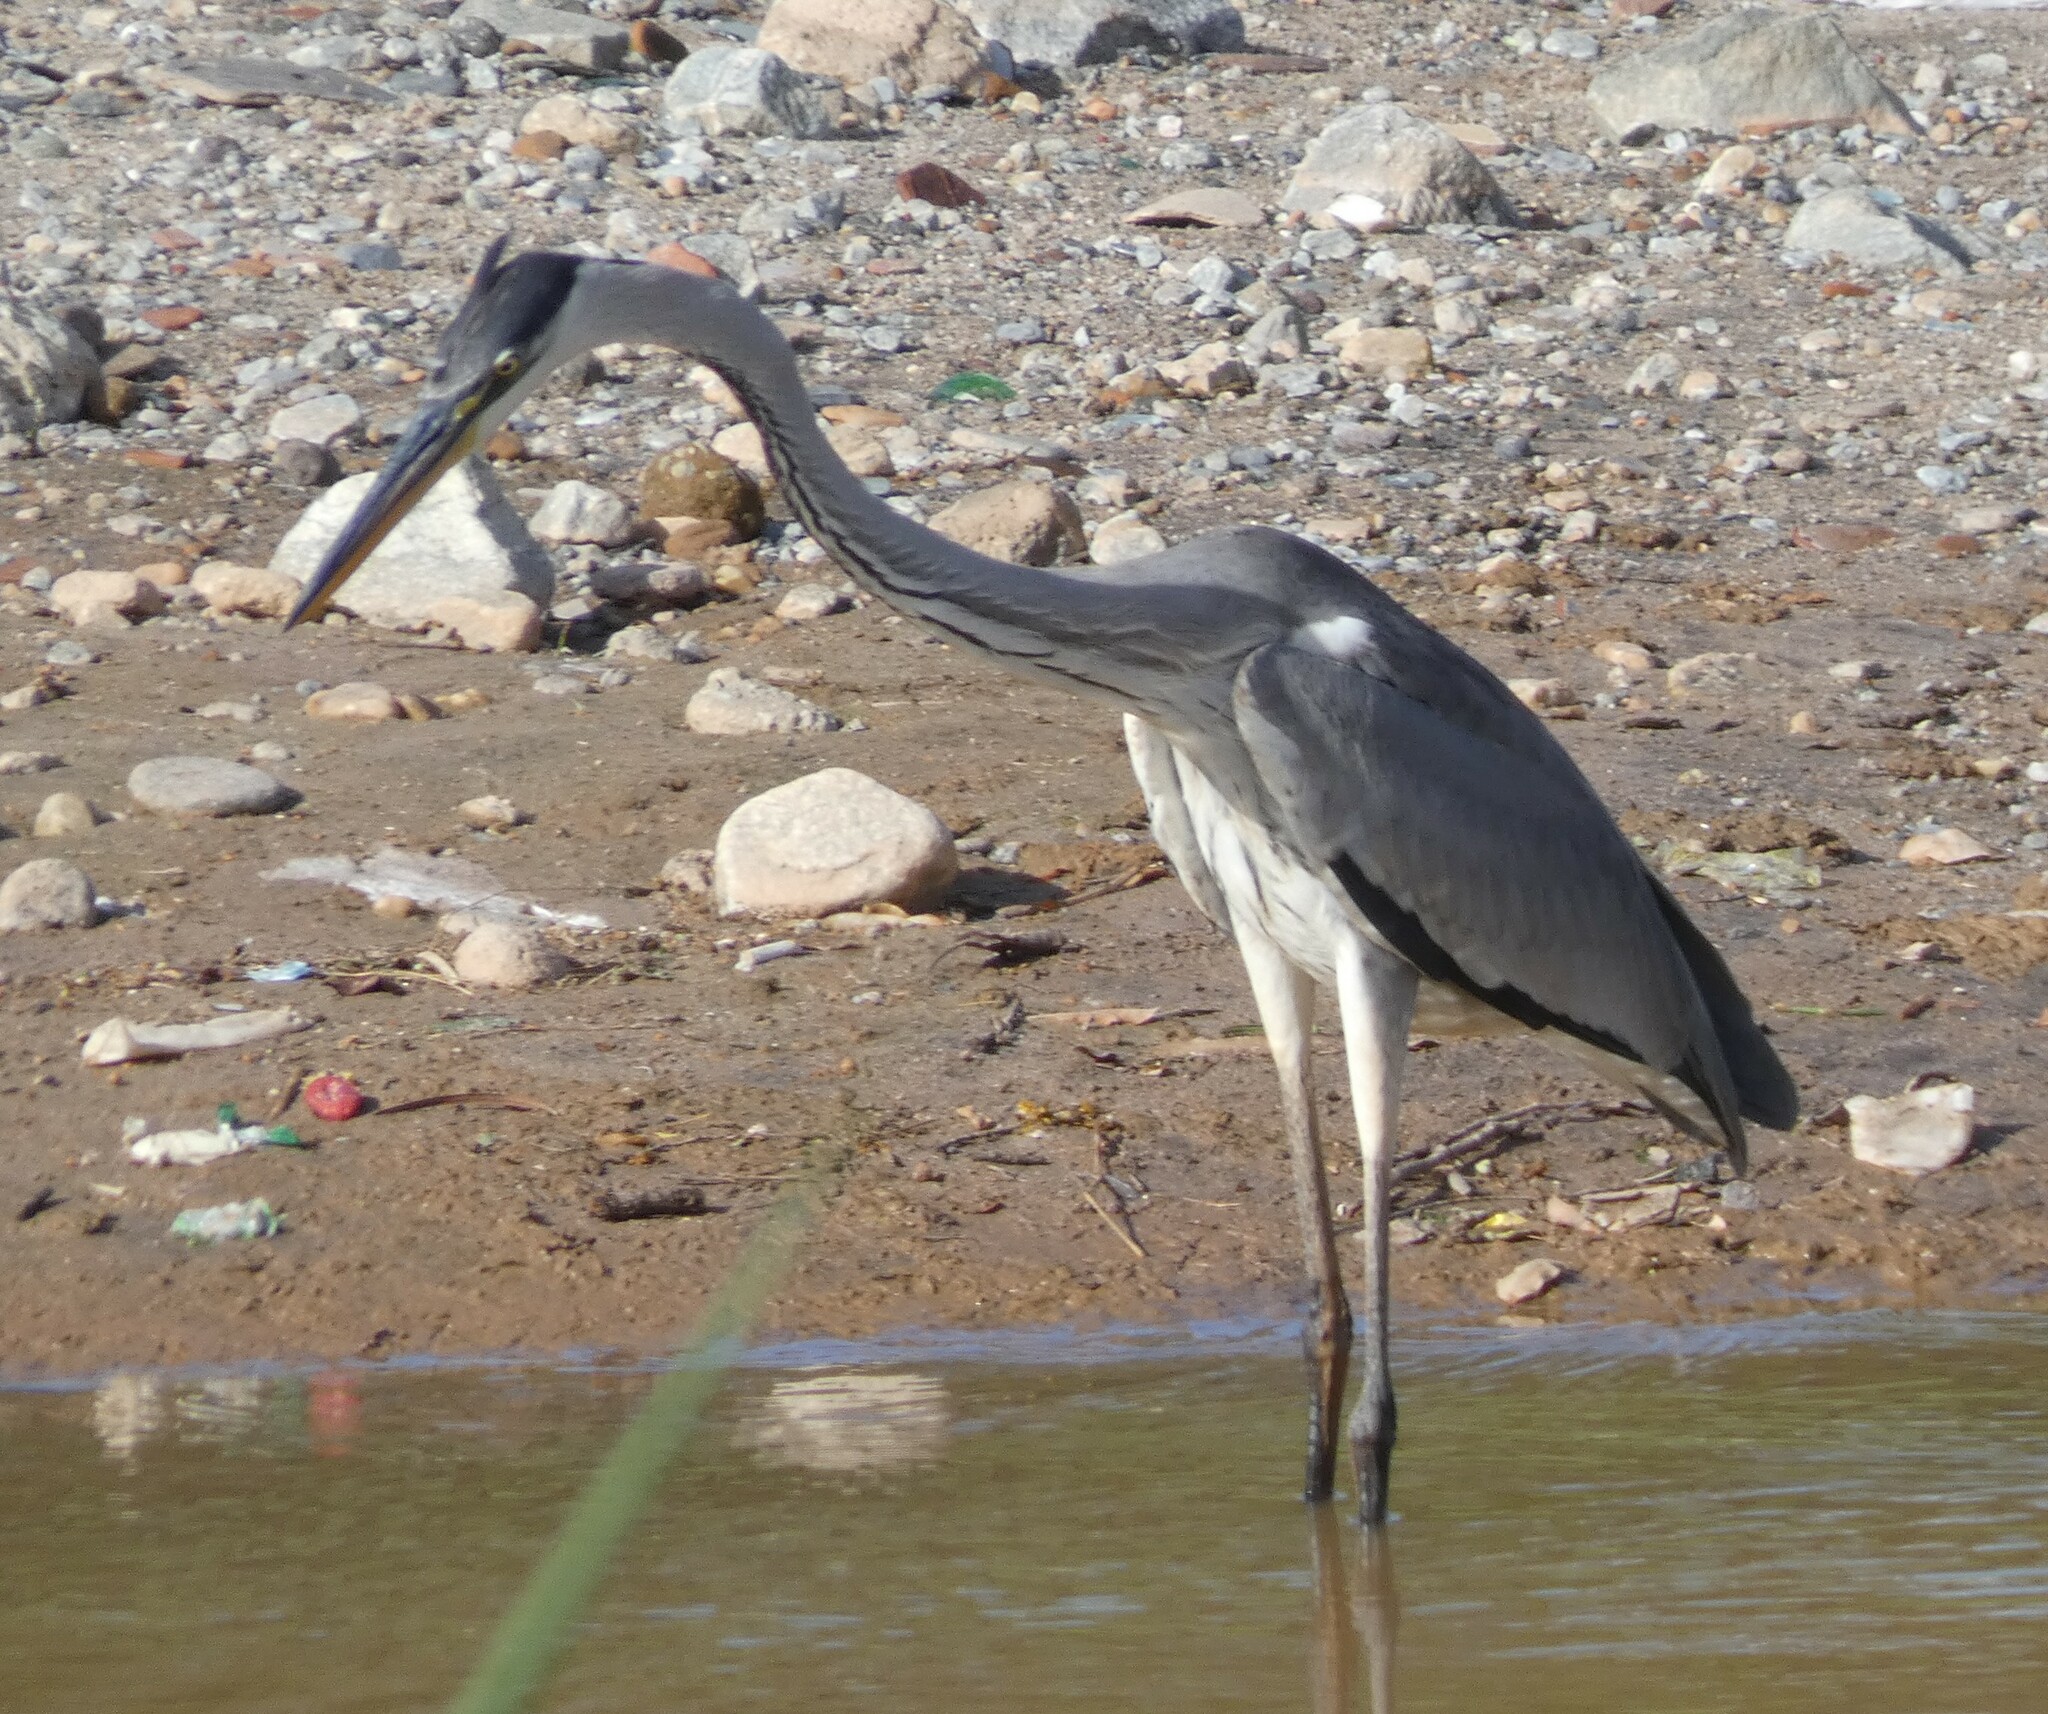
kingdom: Animalia
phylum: Chordata
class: Aves
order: Pelecaniformes
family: Ardeidae
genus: Ardea
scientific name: Ardea cocoi
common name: Cocoi heron
